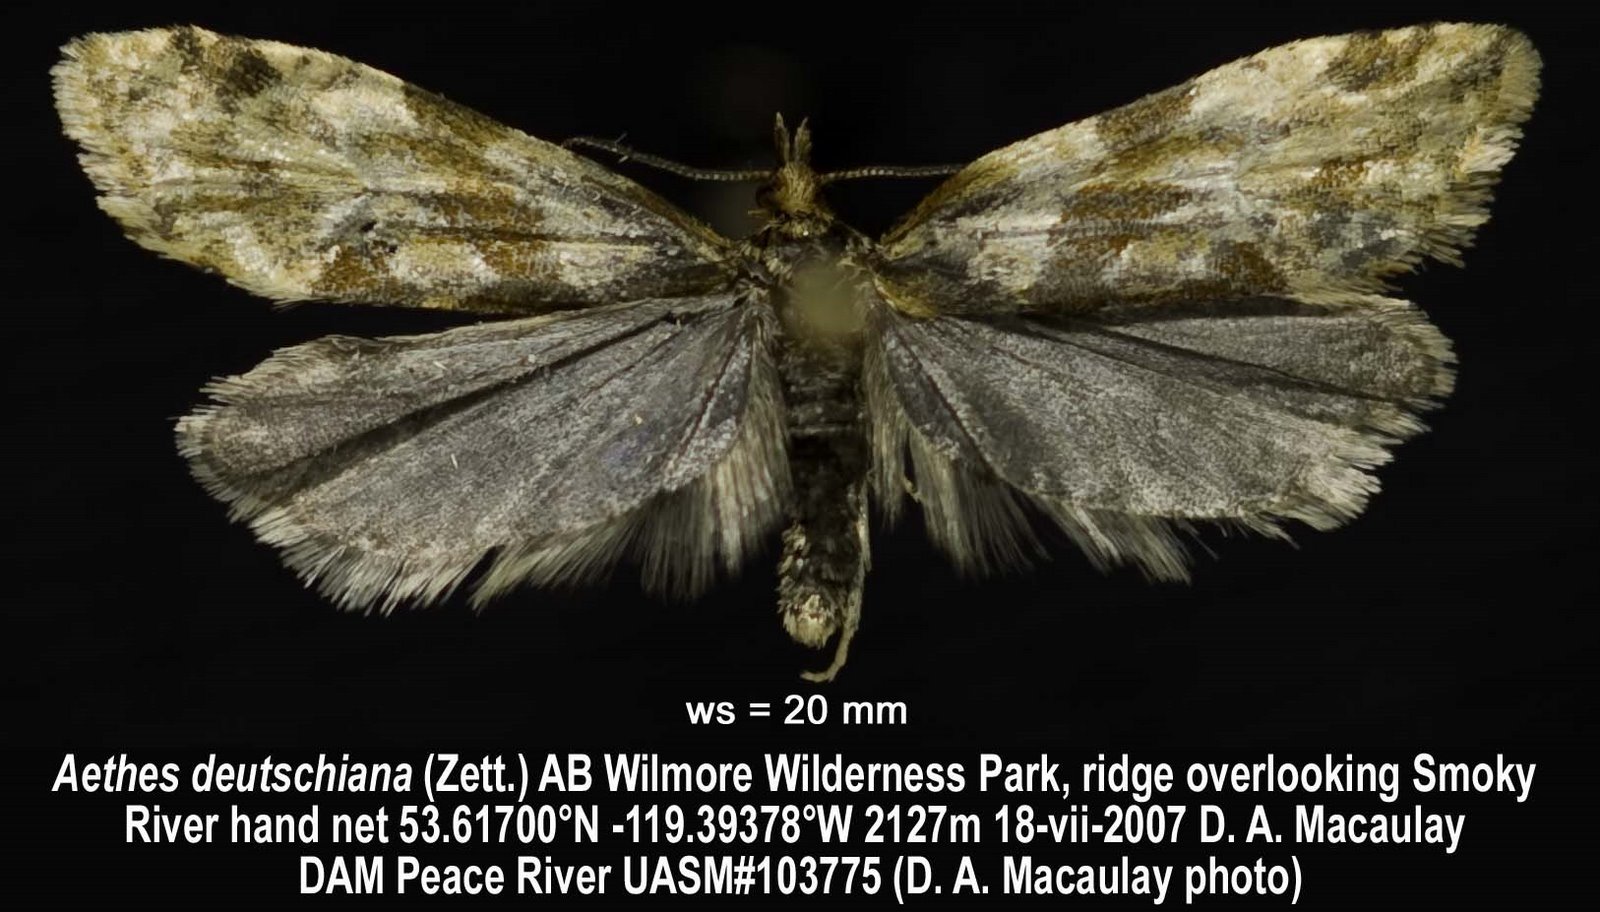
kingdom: Animalia
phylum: Arthropoda
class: Insecta
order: Lepidoptera
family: Tortricidae
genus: Aethes
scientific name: Aethes deutschiana
